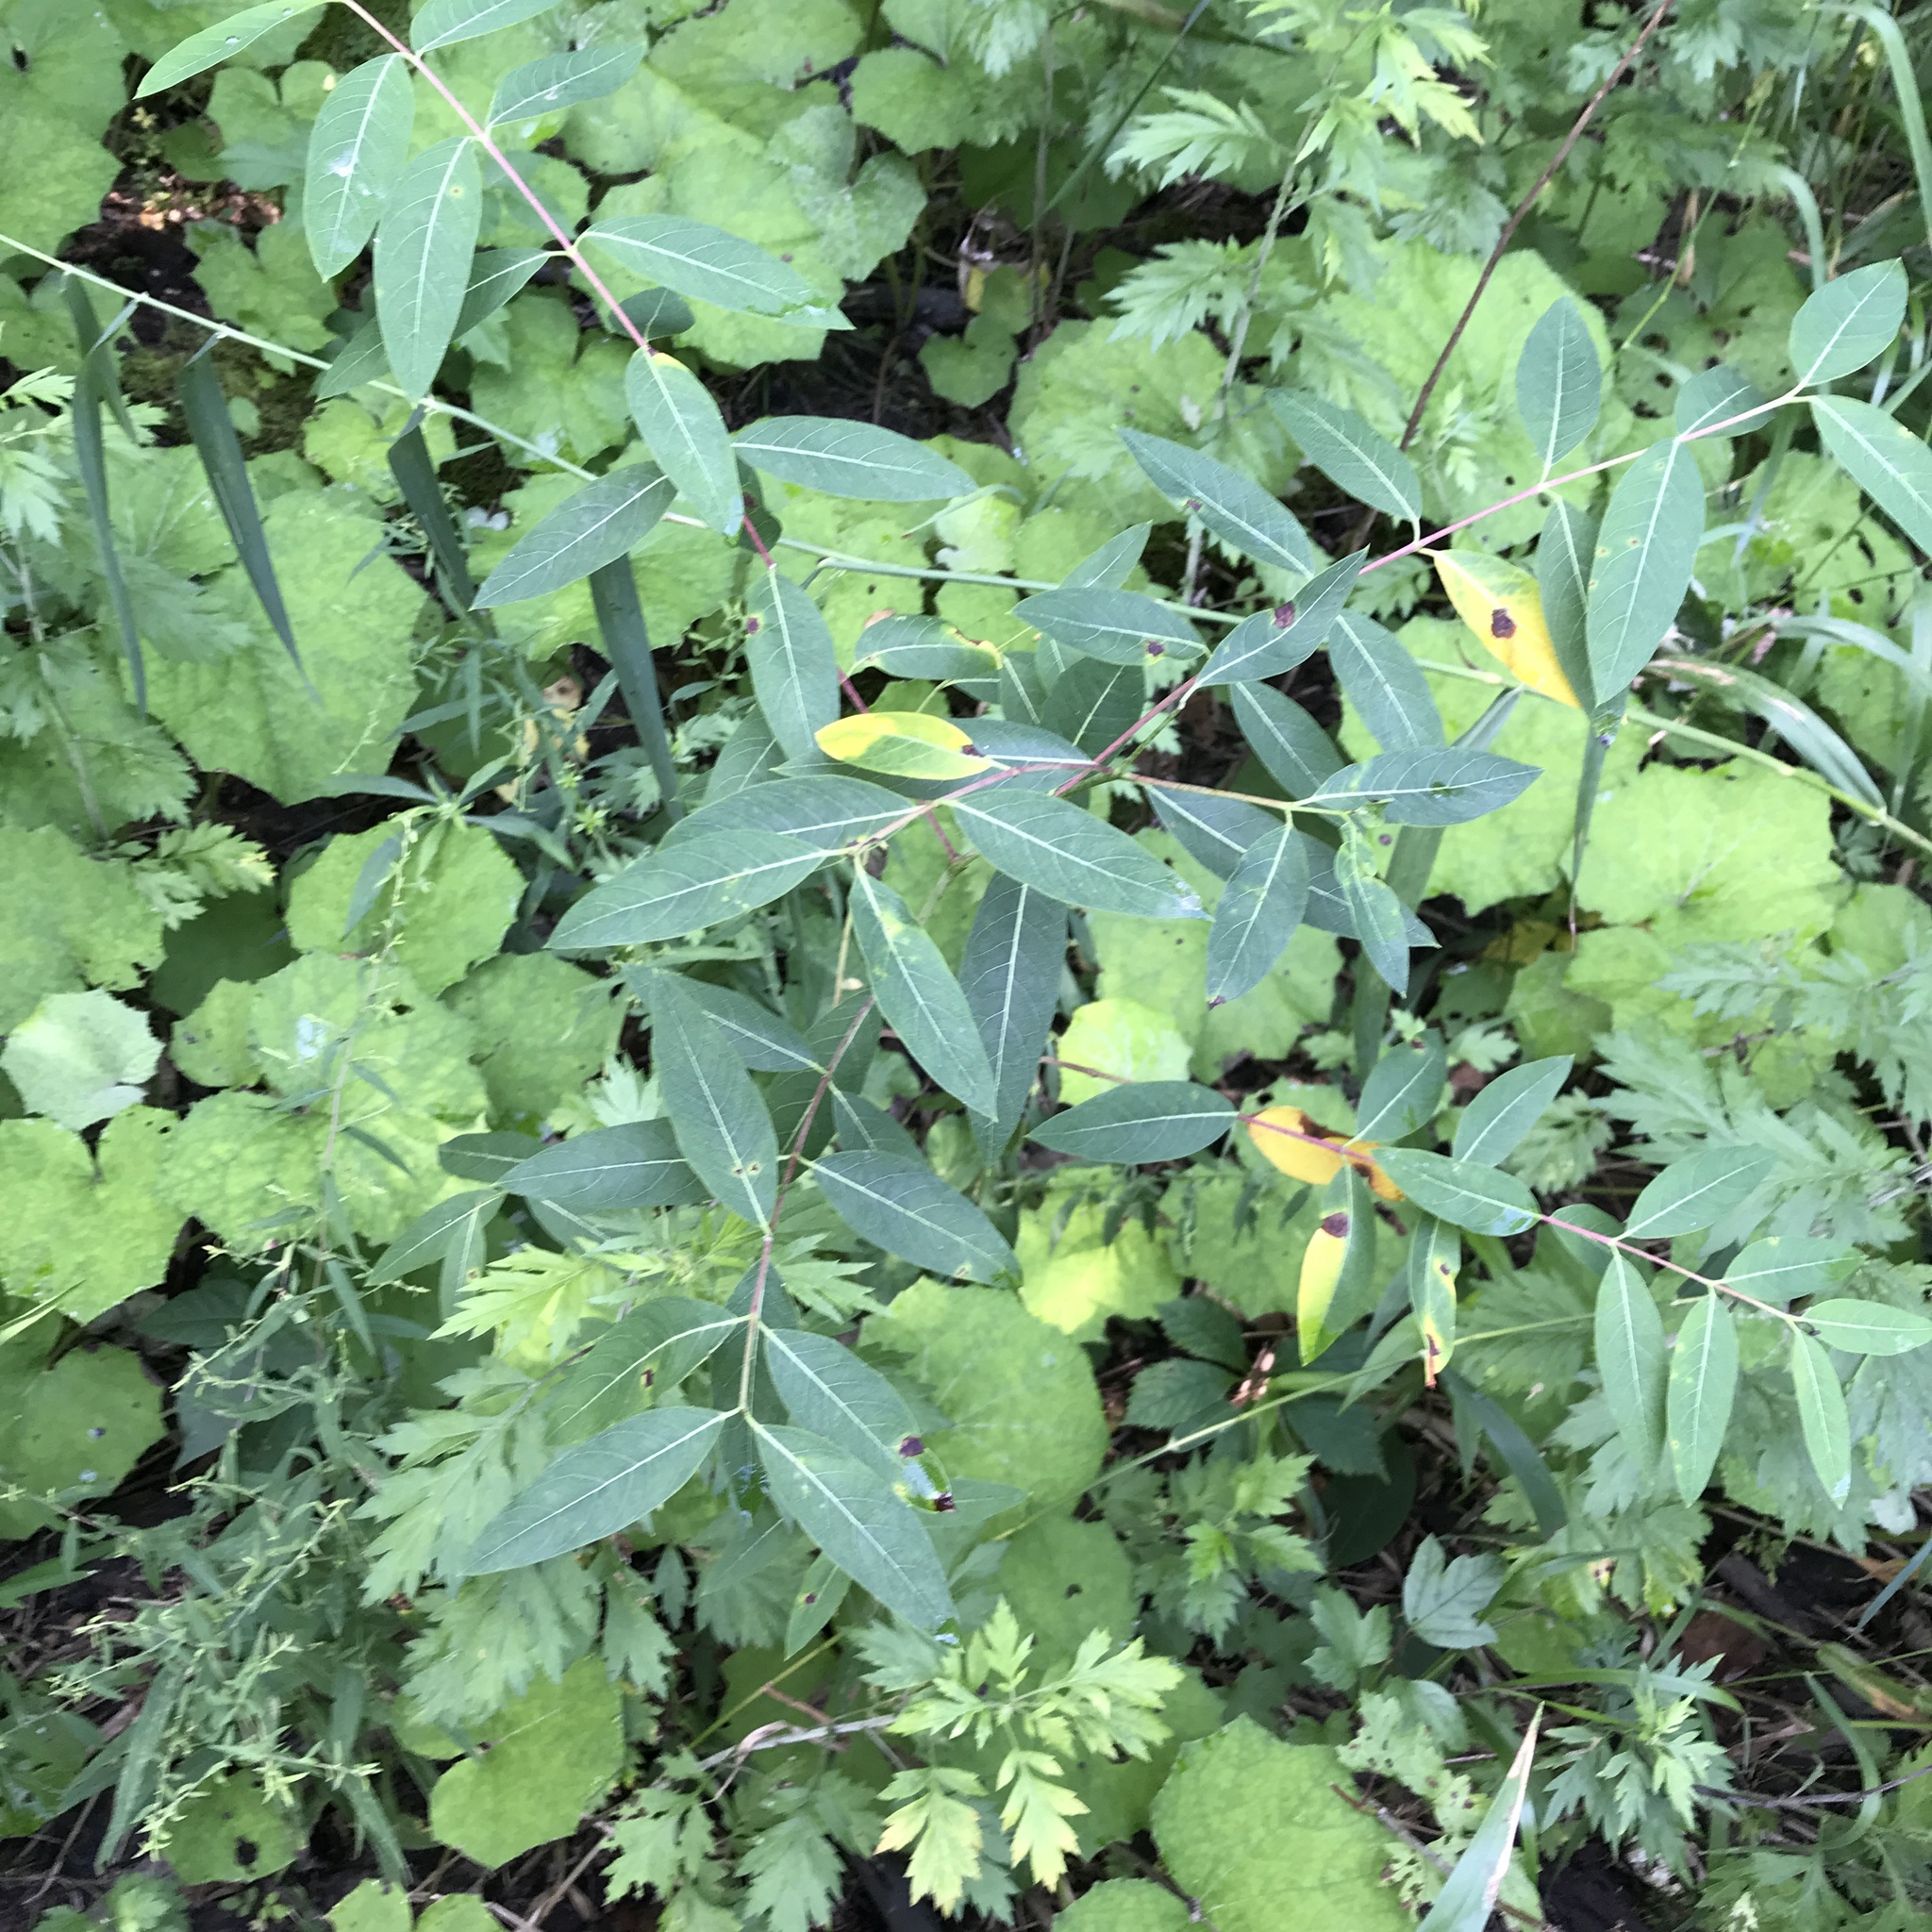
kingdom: Plantae
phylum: Tracheophyta
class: Magnoliopsida
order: Gentianales
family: Apocynaceae
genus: Apocynum
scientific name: Apocynum cannabinum
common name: Hemp dogbane
